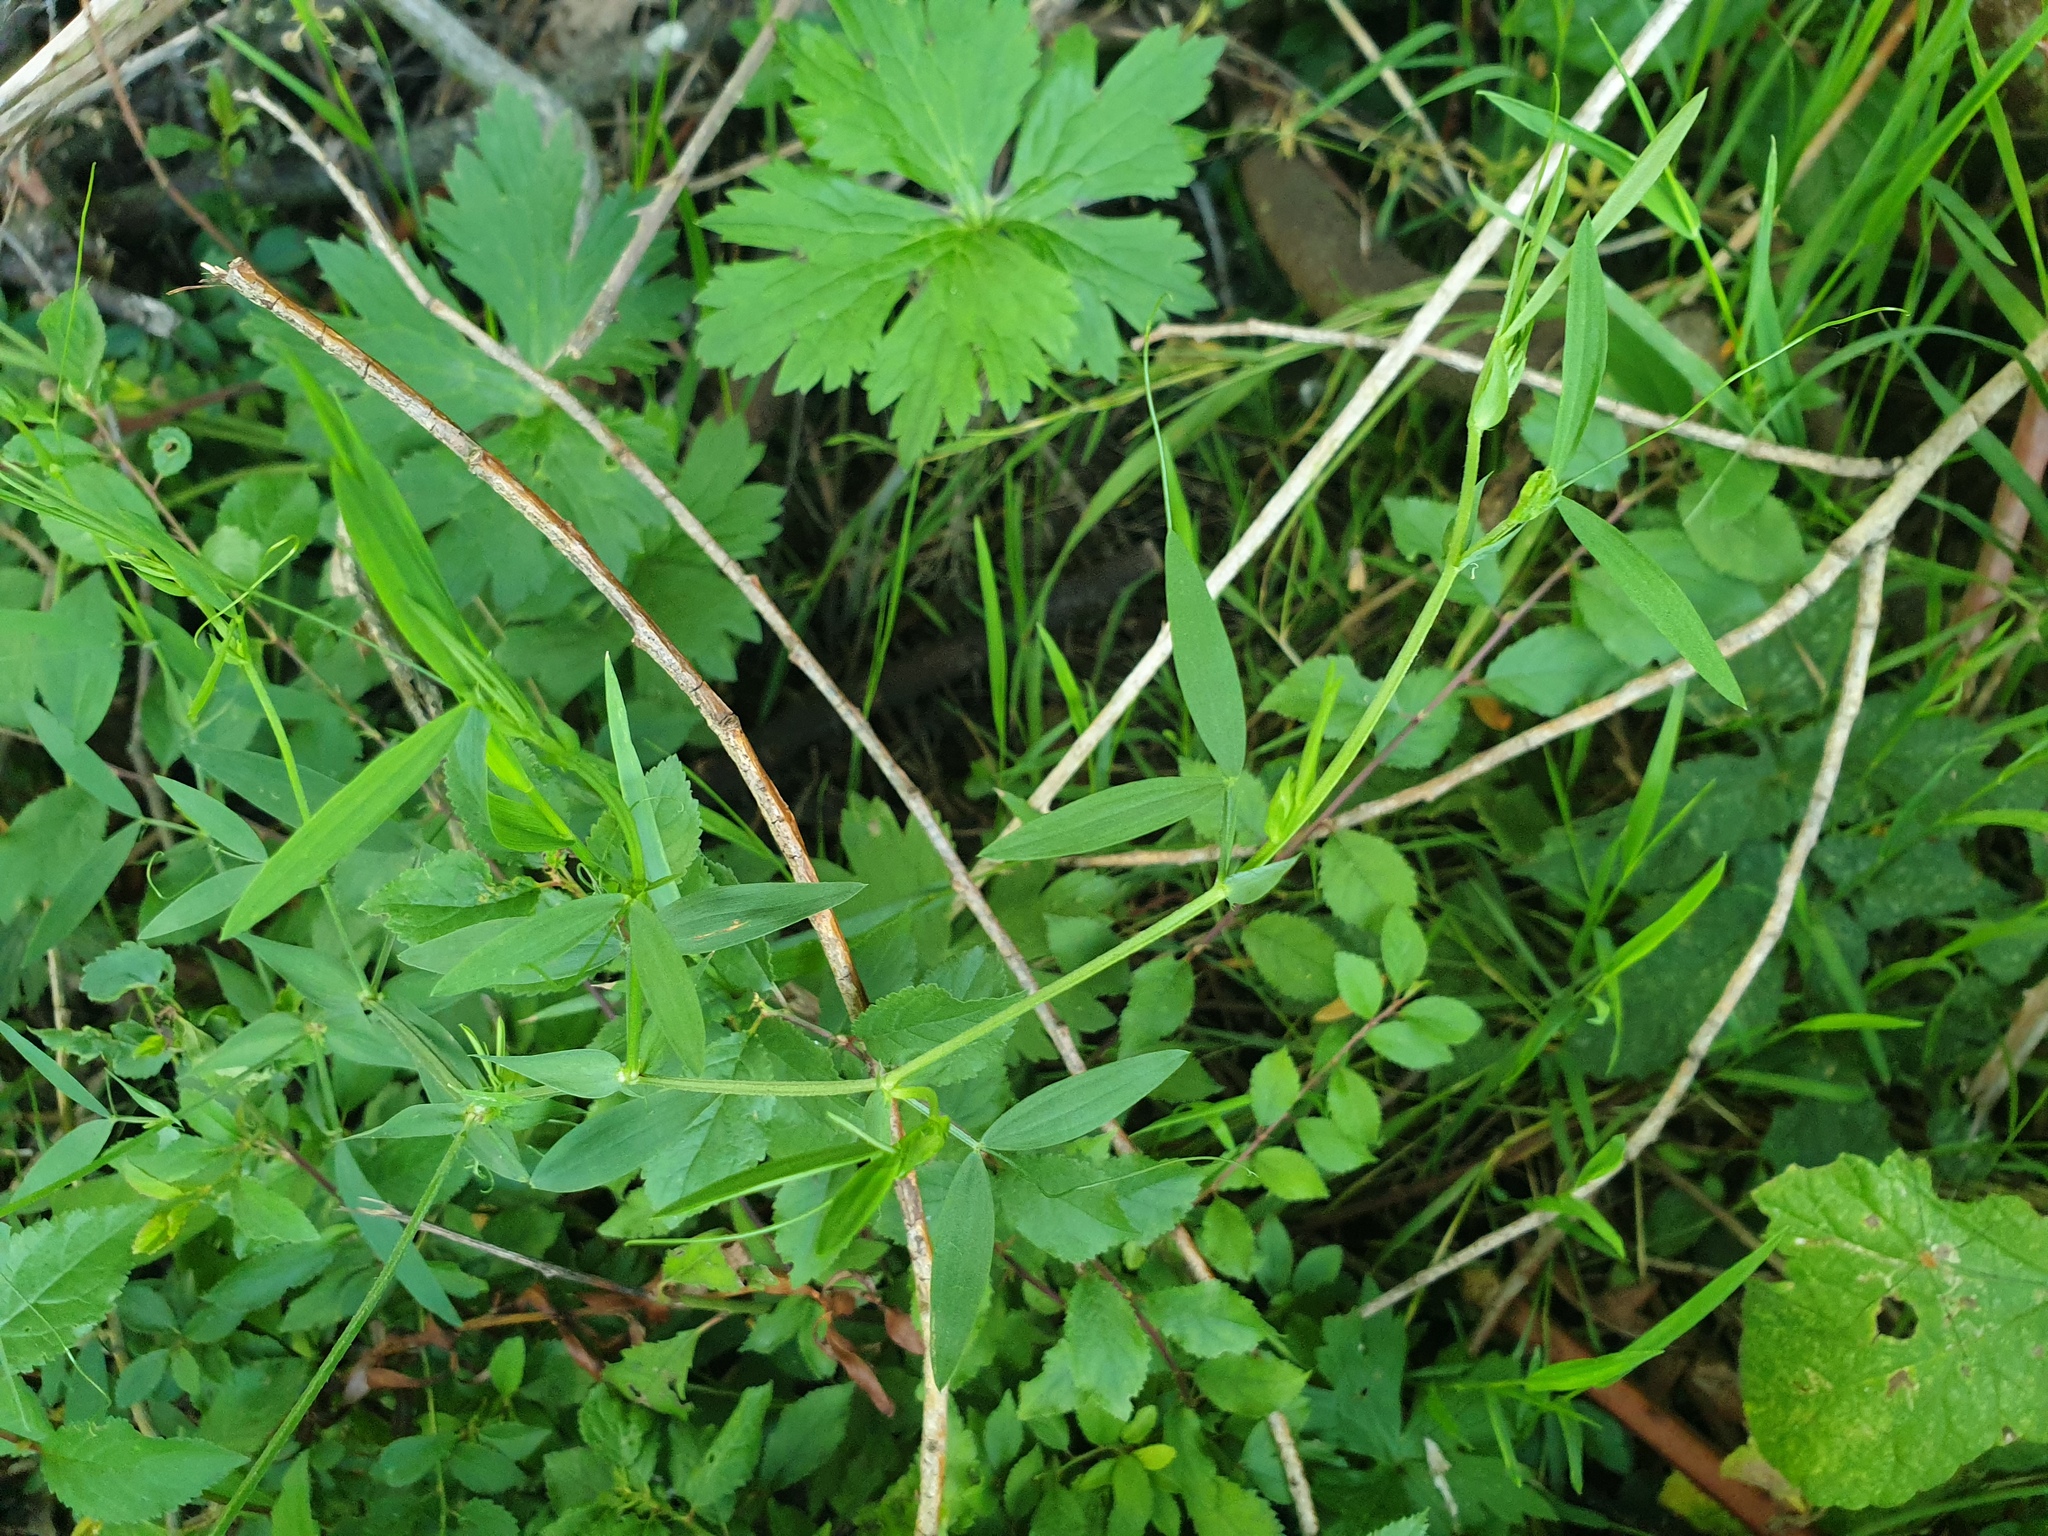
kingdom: Plantae
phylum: Tracheophyta
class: Magnoliopsida
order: Fabales
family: Fabaceae
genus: Lathyrus
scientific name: Lathyrus pratensis
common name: Meadow vetchling
